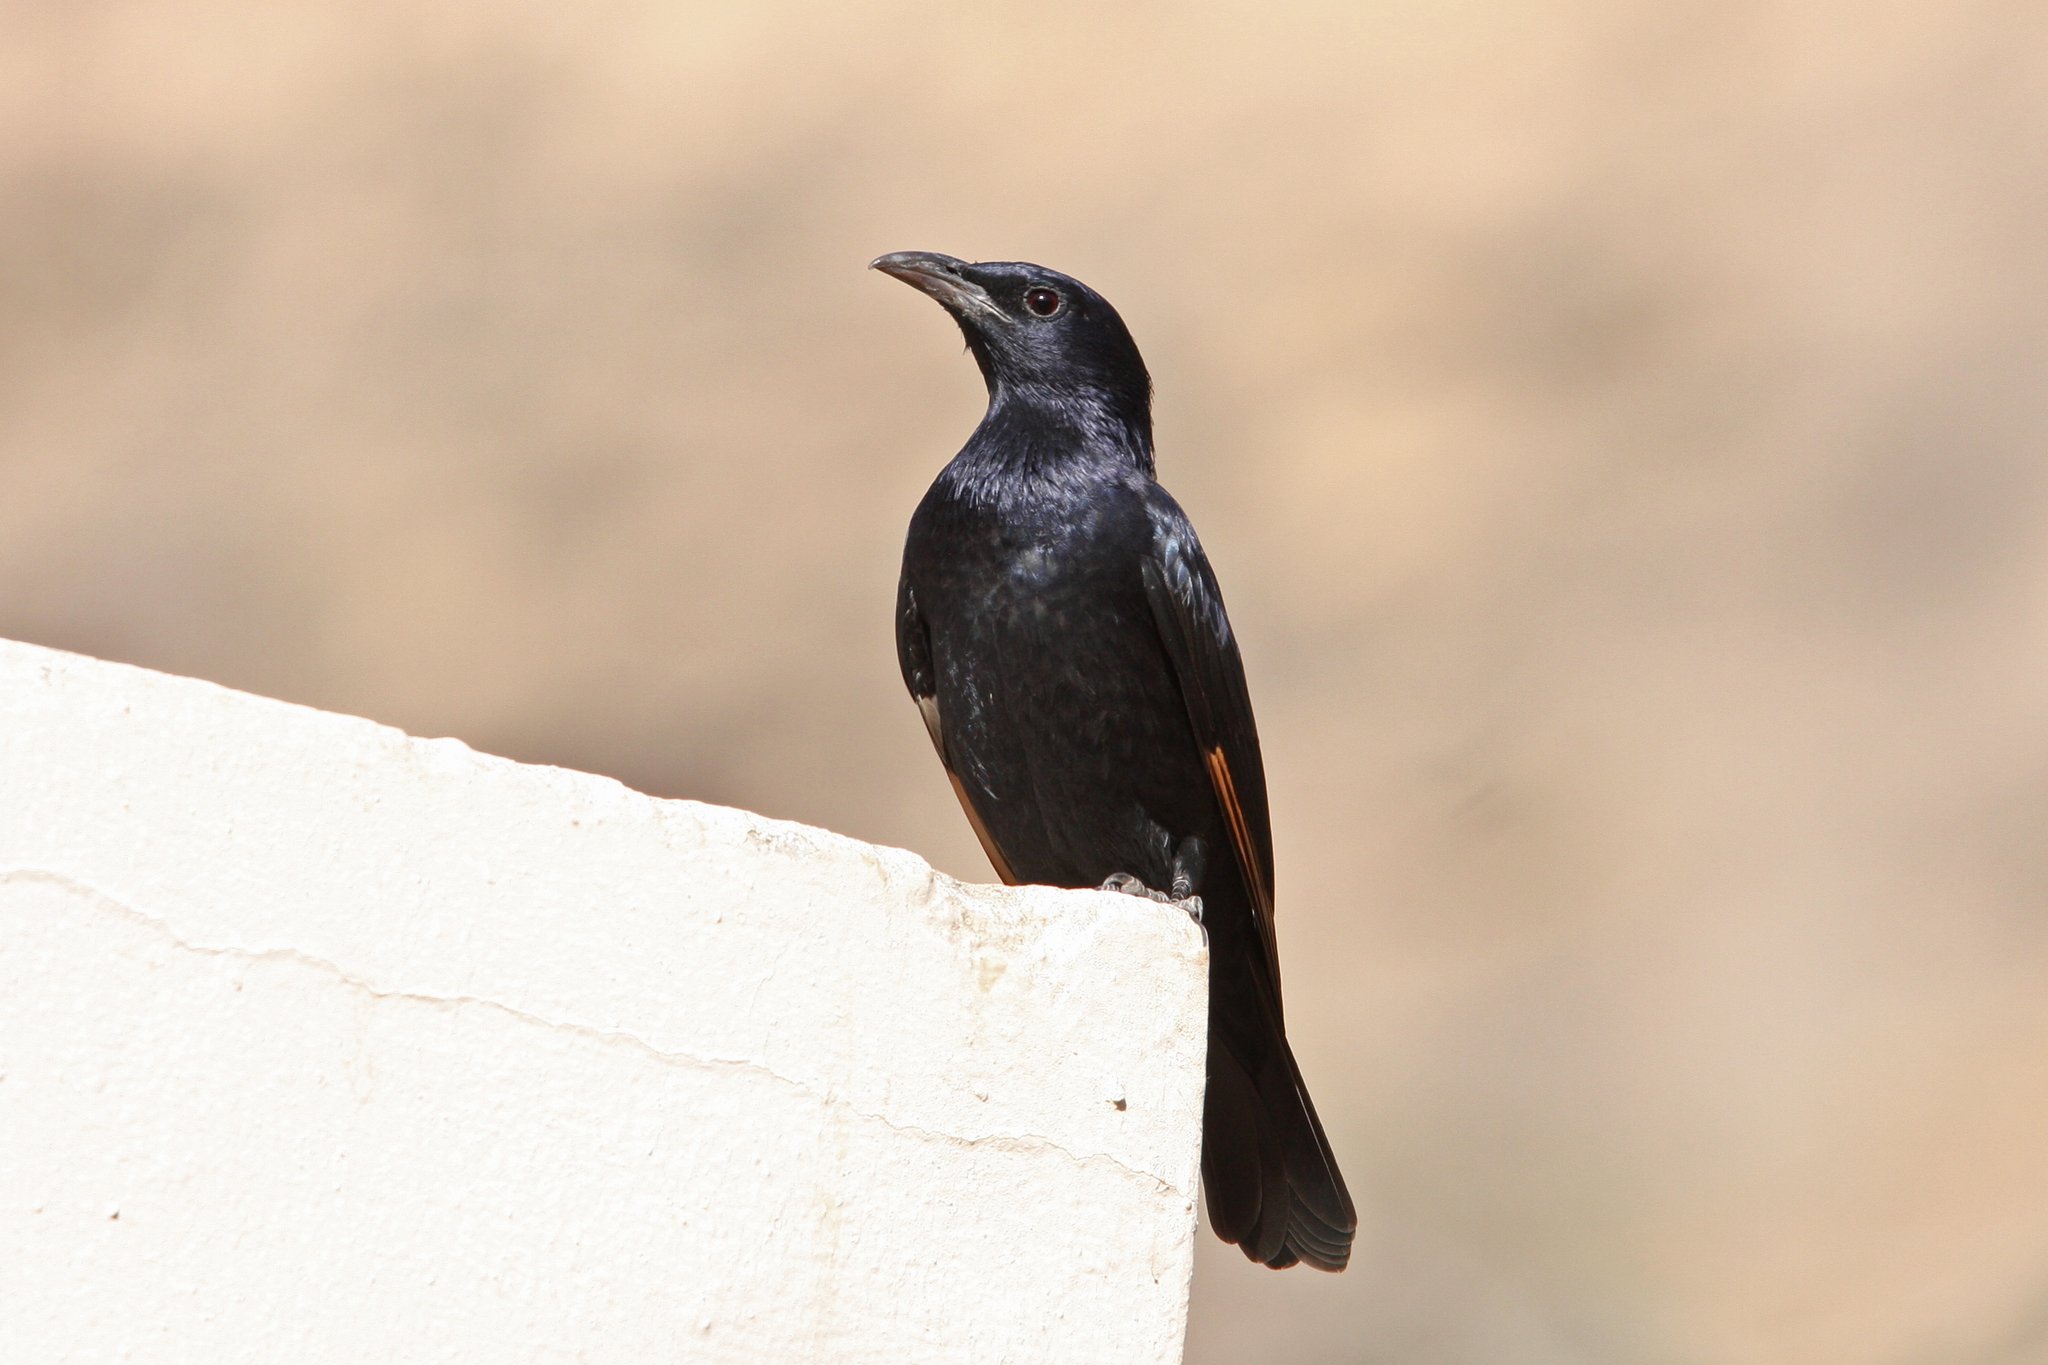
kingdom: Animalia
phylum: Chordata
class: Aves
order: Passeriformes
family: Sturnidae
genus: Onychognathus
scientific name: Onychognathus tristramii
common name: Tristram's starling
